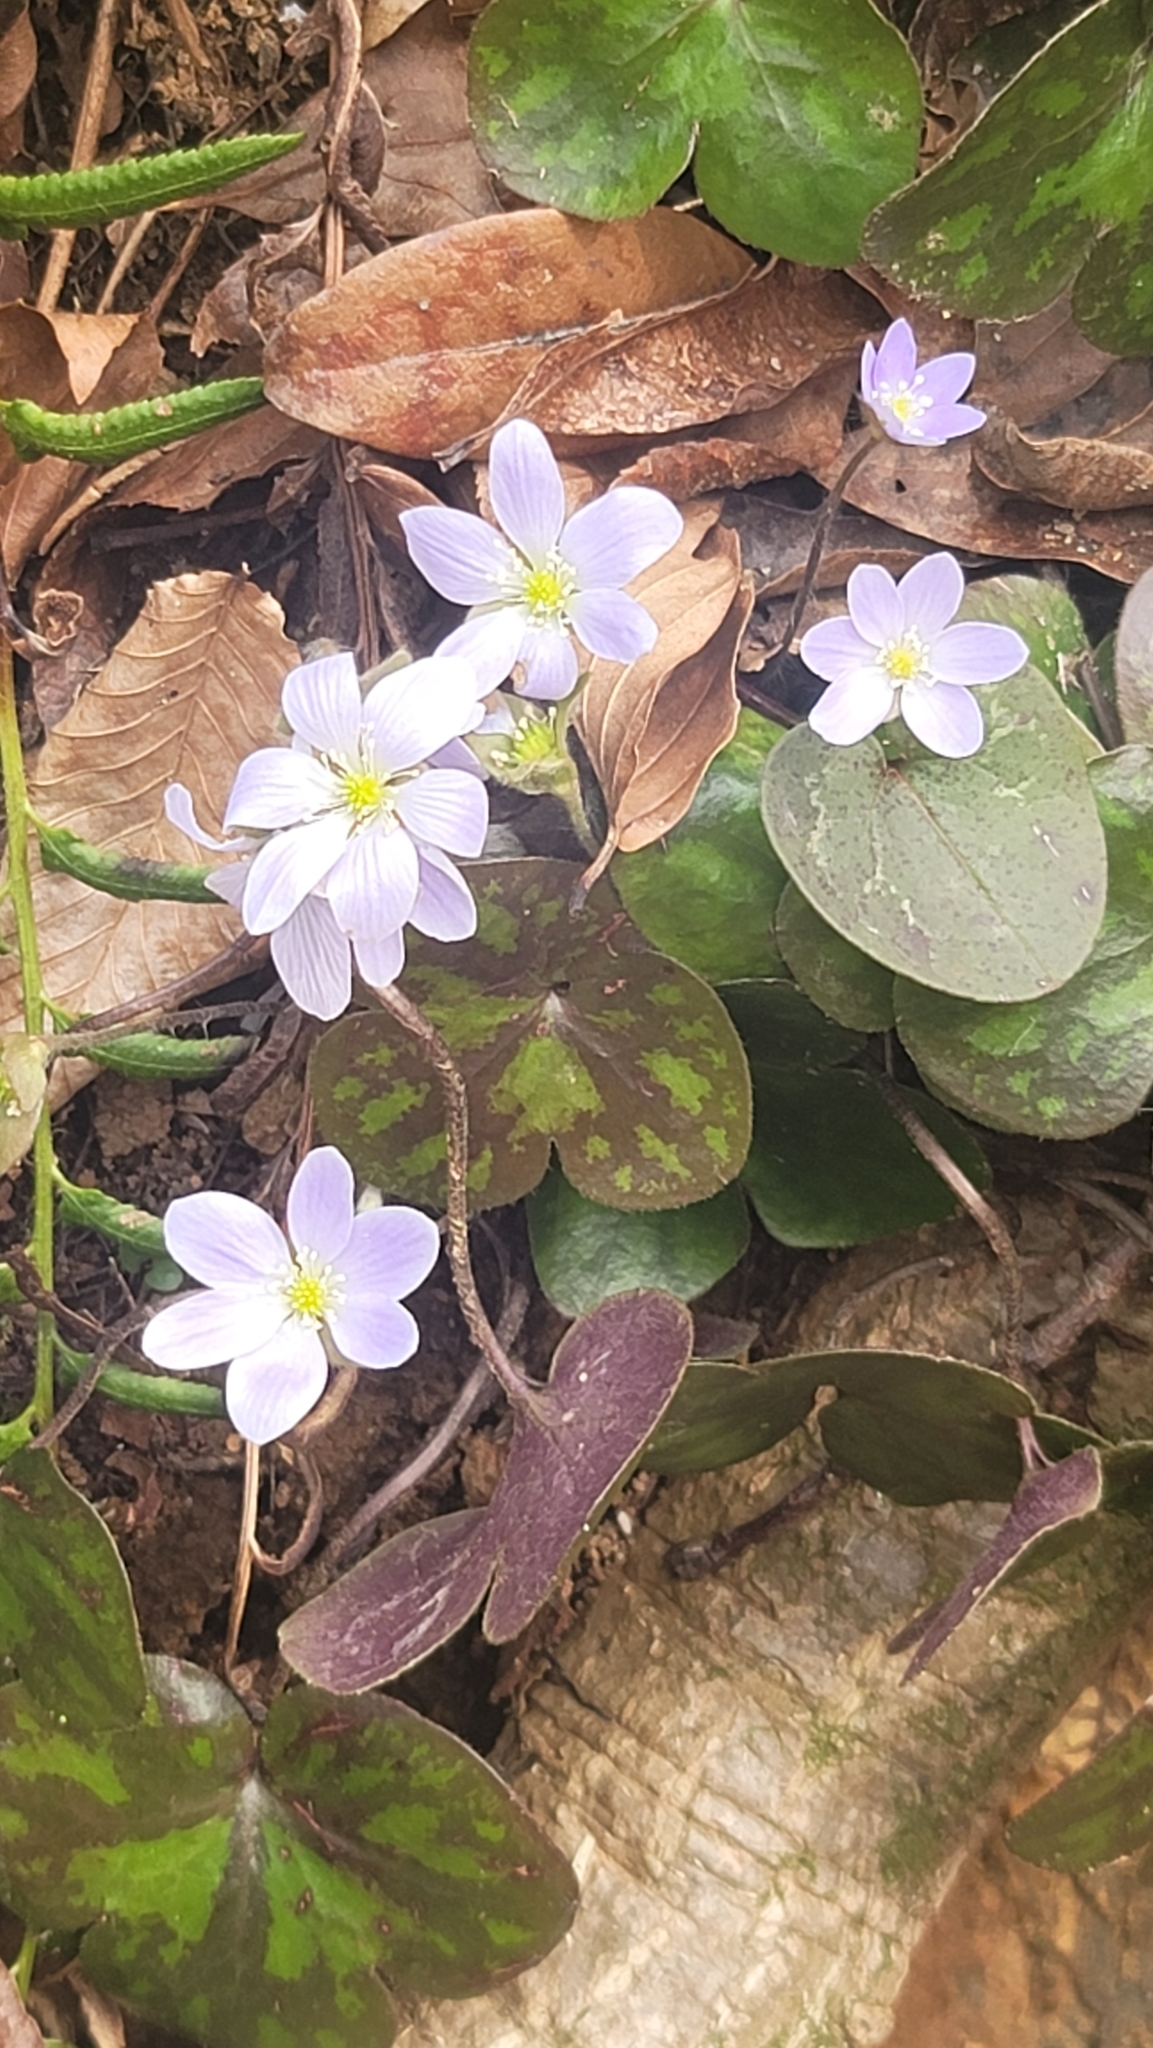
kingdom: Plantae
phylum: Tracheophyta
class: Magnoliopsida
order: Ranunculales
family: Ranunculaceae
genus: Hepatica
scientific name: Hepatica americana
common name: American hepatica
